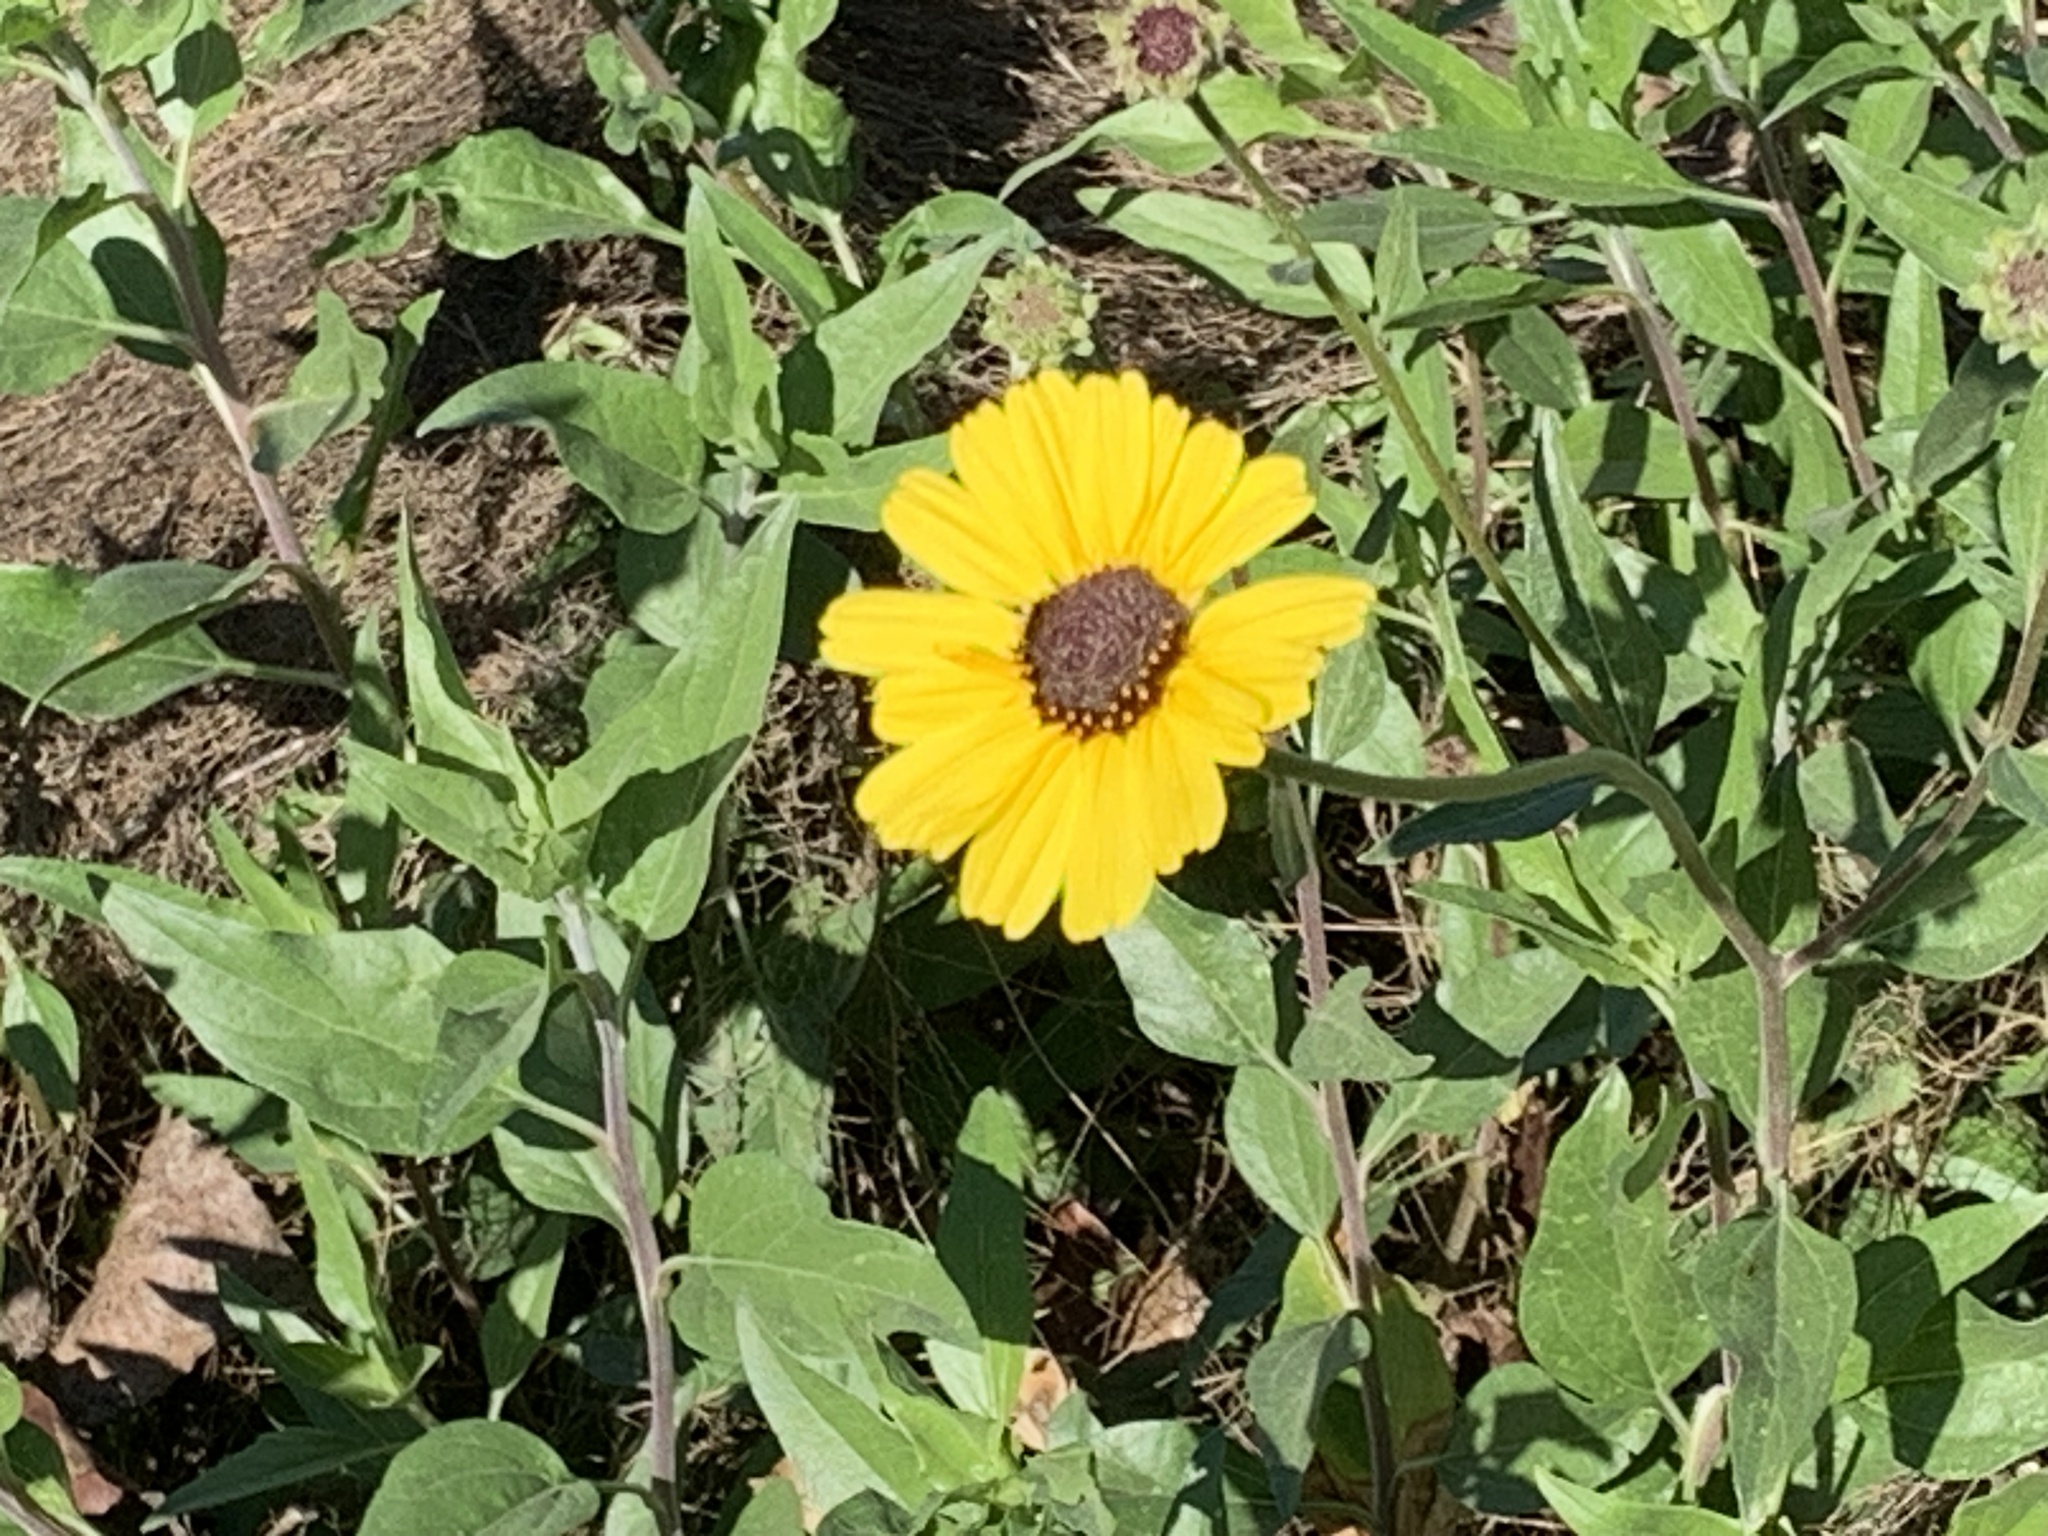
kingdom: Plantae
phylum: Tracheophyta
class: Magnoliopsida
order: Asterales
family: Asteraceae
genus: Encelia
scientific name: Encelia californica
